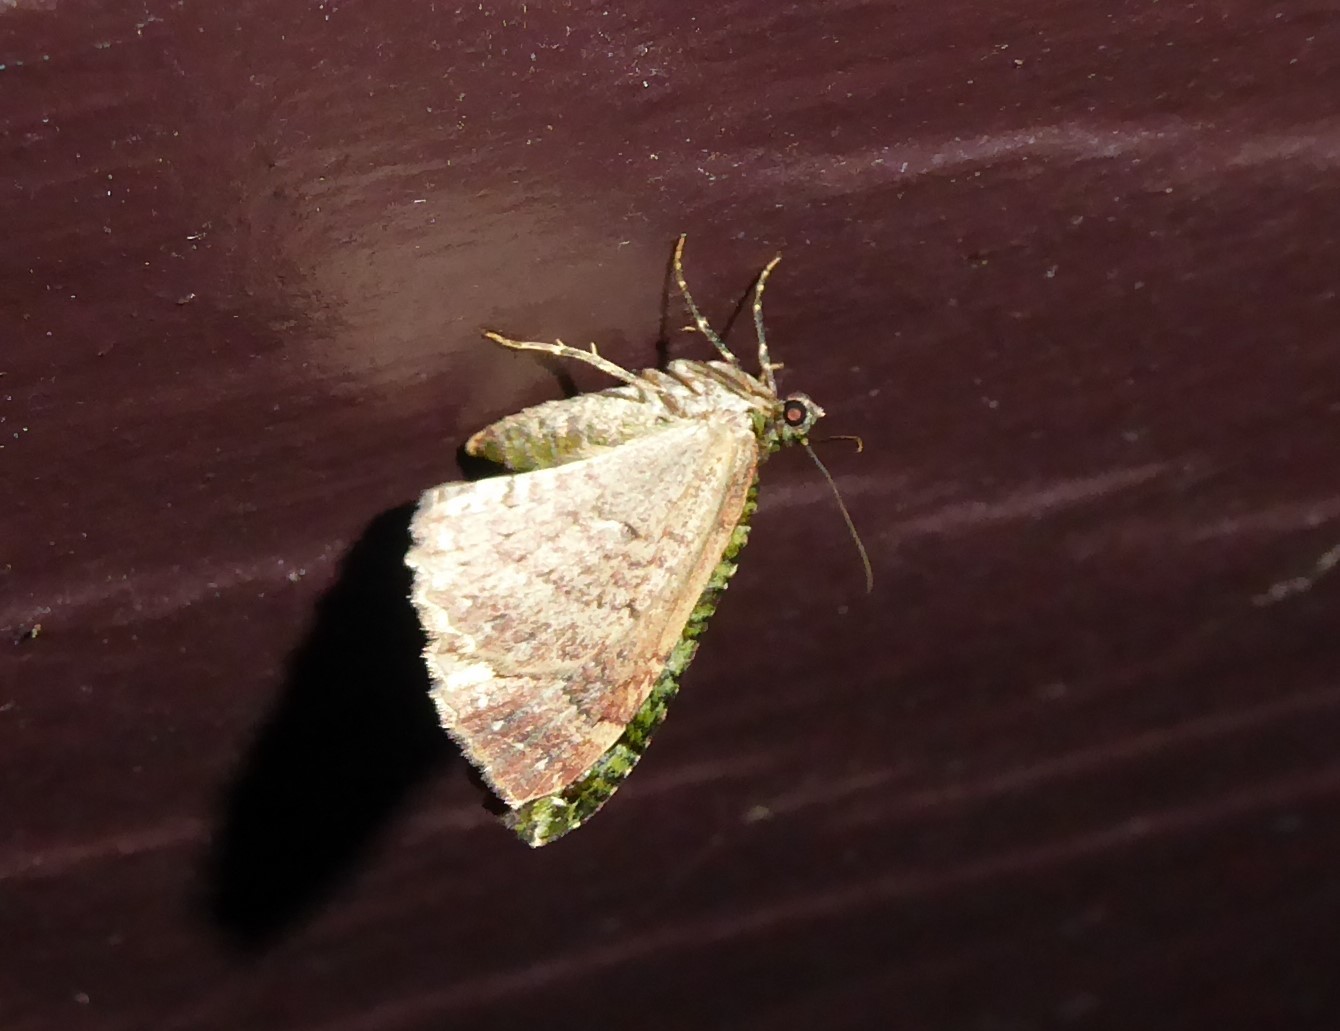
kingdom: Animalia
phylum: Arthropoda
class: Insecta
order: Lepidoptera
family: Geometridae
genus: Austrocidaria
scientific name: Austrocidaria similata
